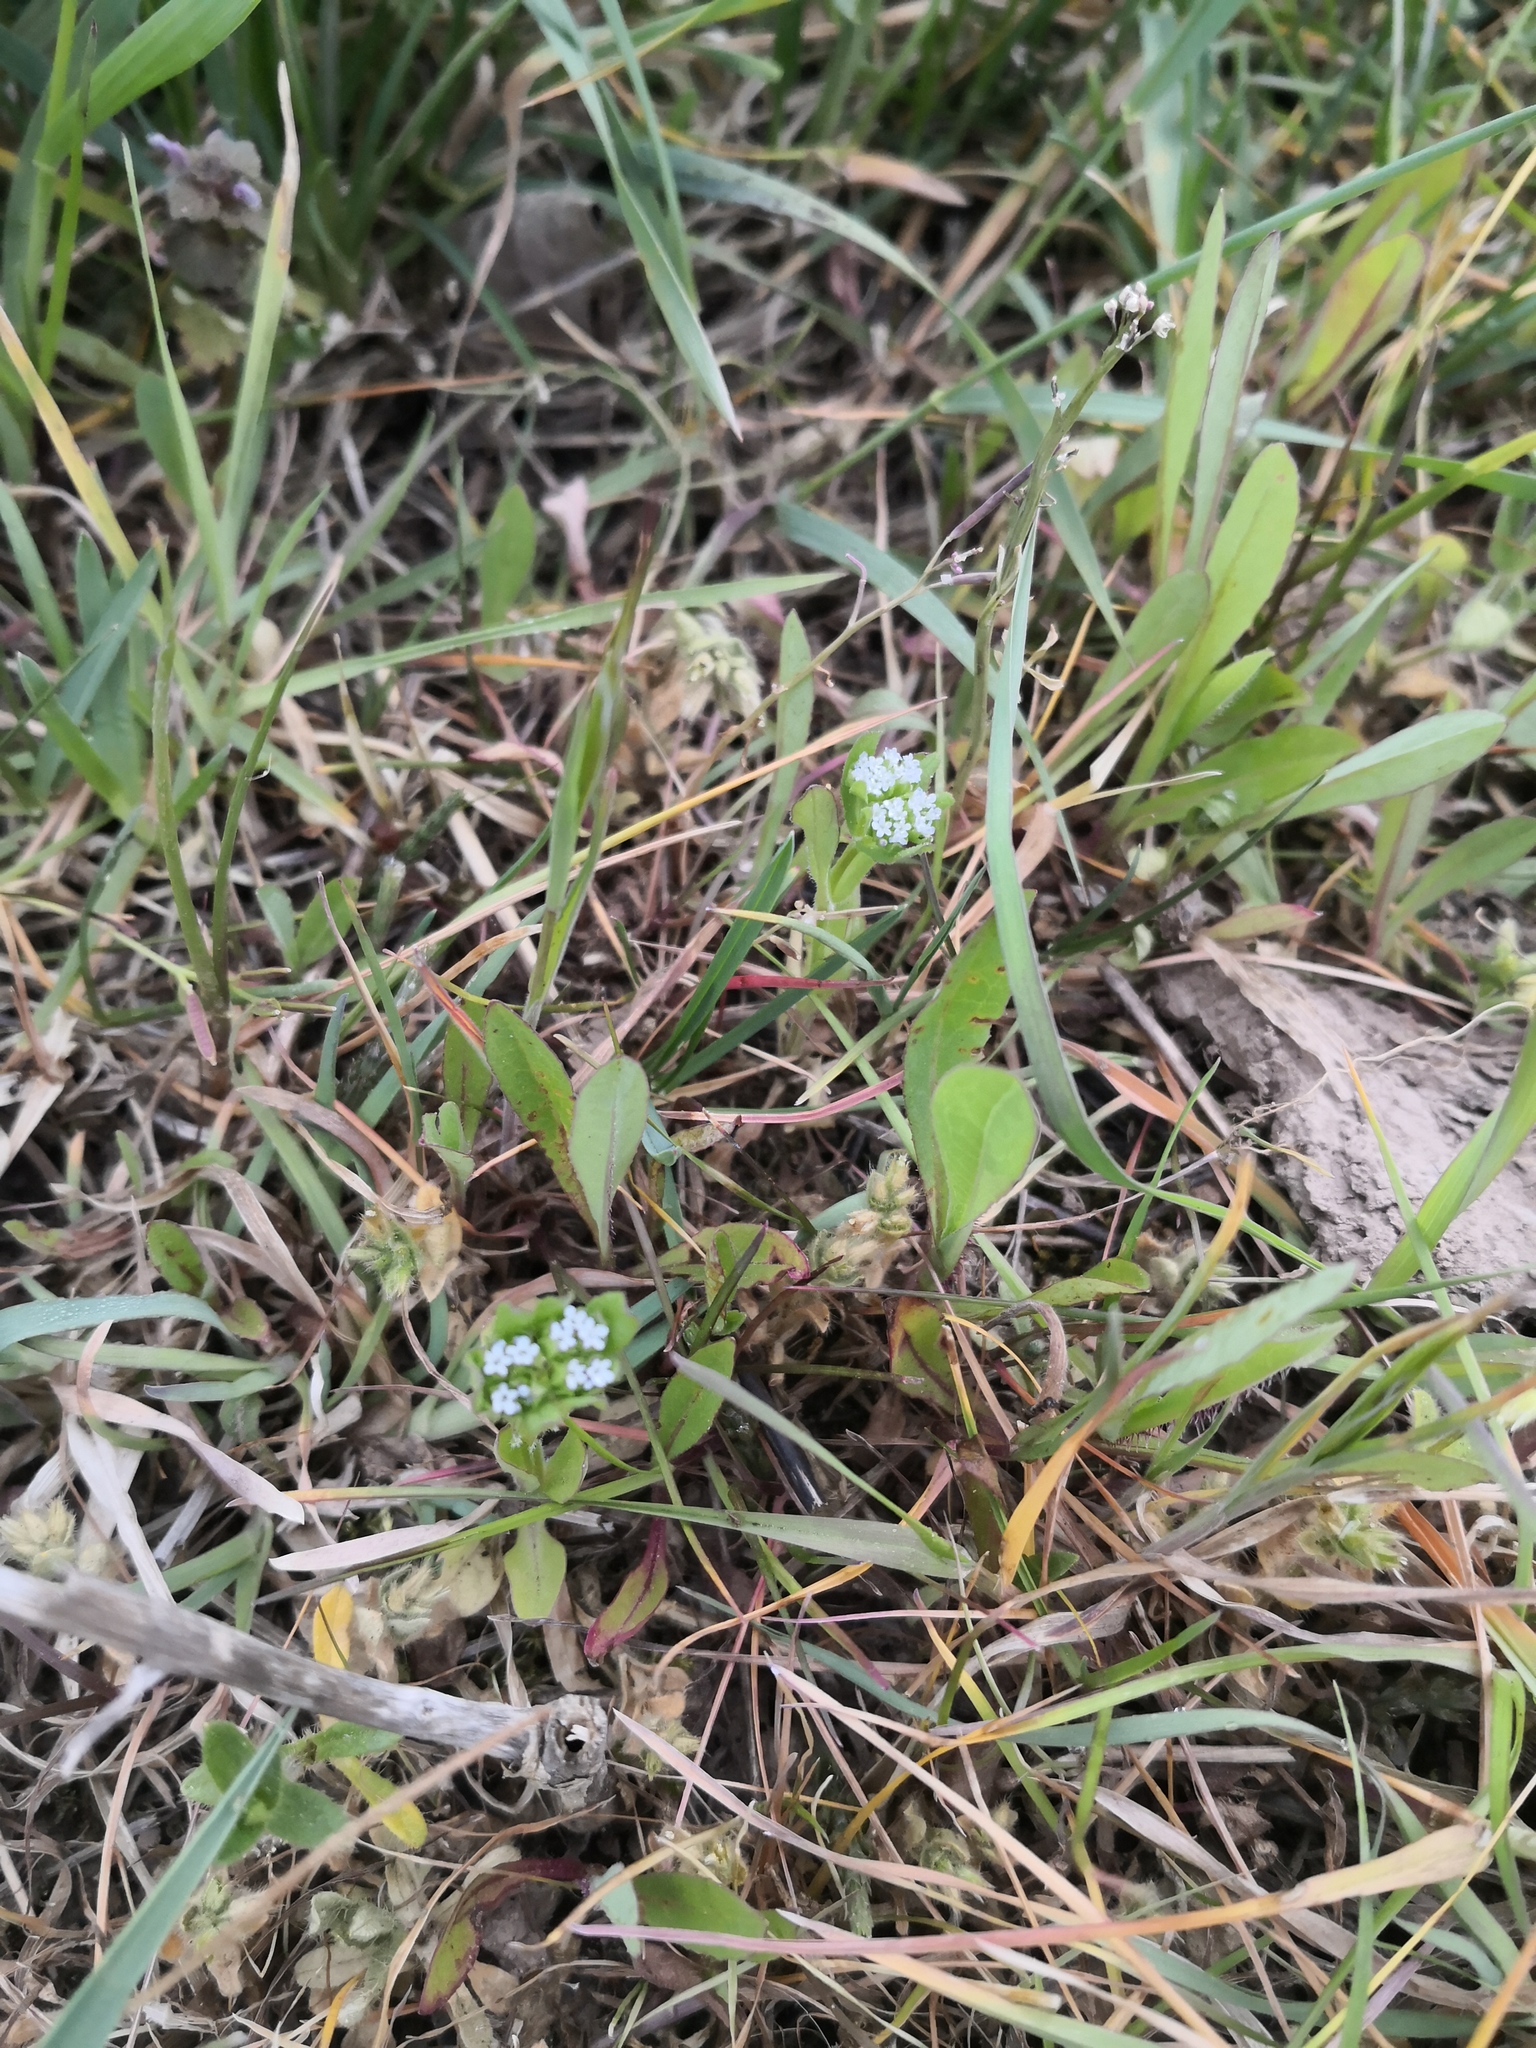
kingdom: Plantae
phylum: Tracheophyta
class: Magnoliopsida
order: Dipsacales
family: Caprifoliaceae
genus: Valerianella
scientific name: Valerianella locusta
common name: Common cornsalad
